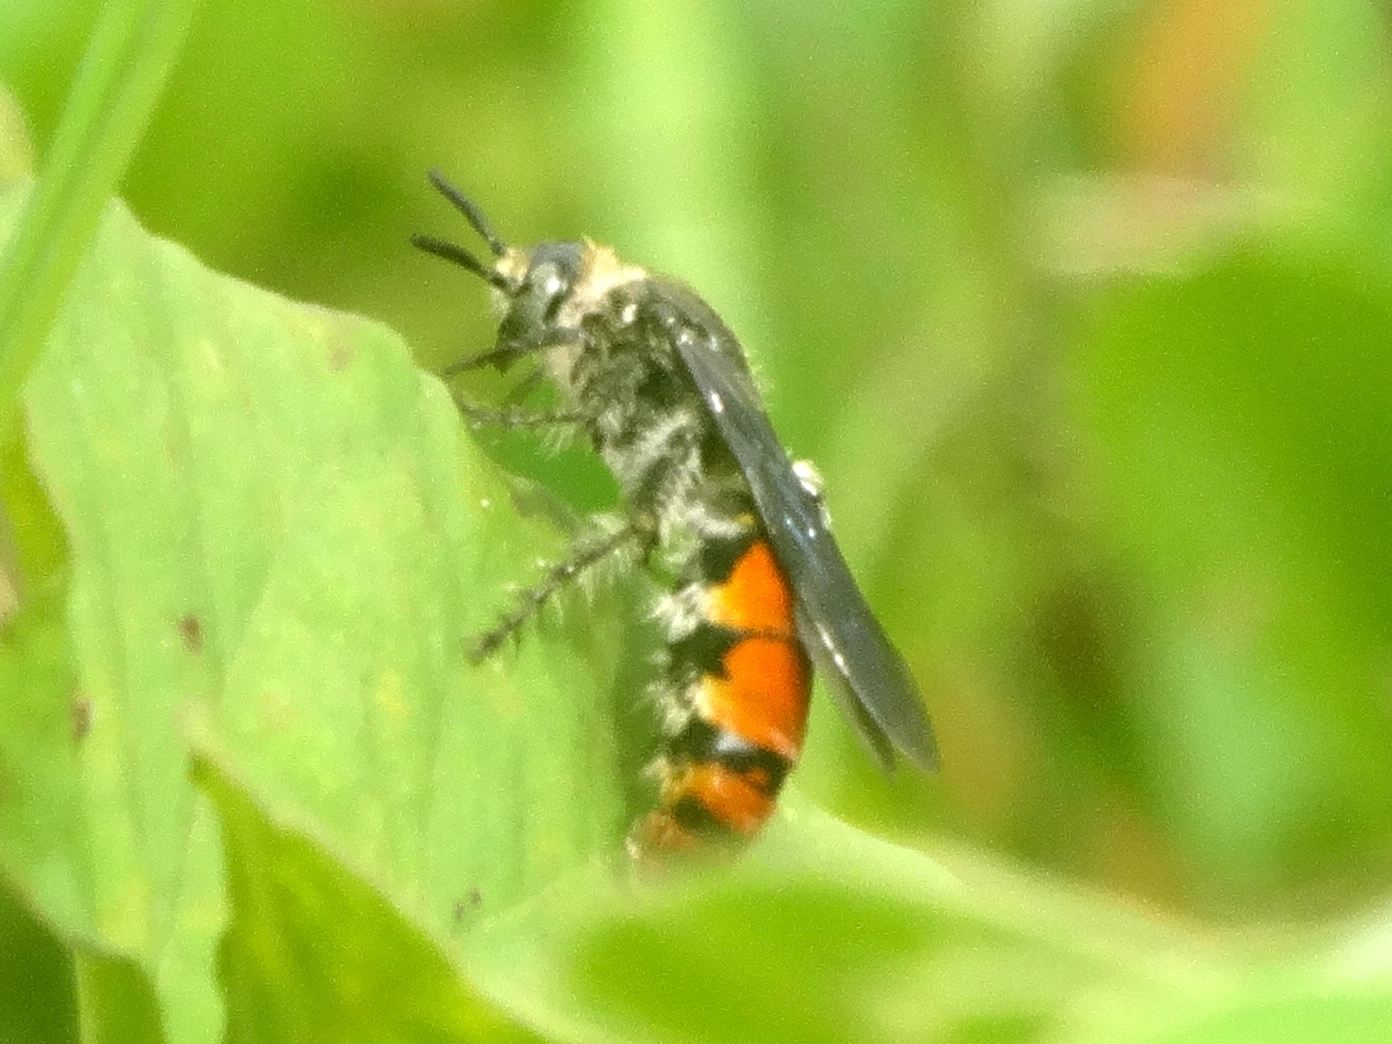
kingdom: Animalia
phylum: Arthropoda
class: Insecta
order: Hymenoptera
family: Scoliidae
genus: Dielis
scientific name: Dielis tolteca
